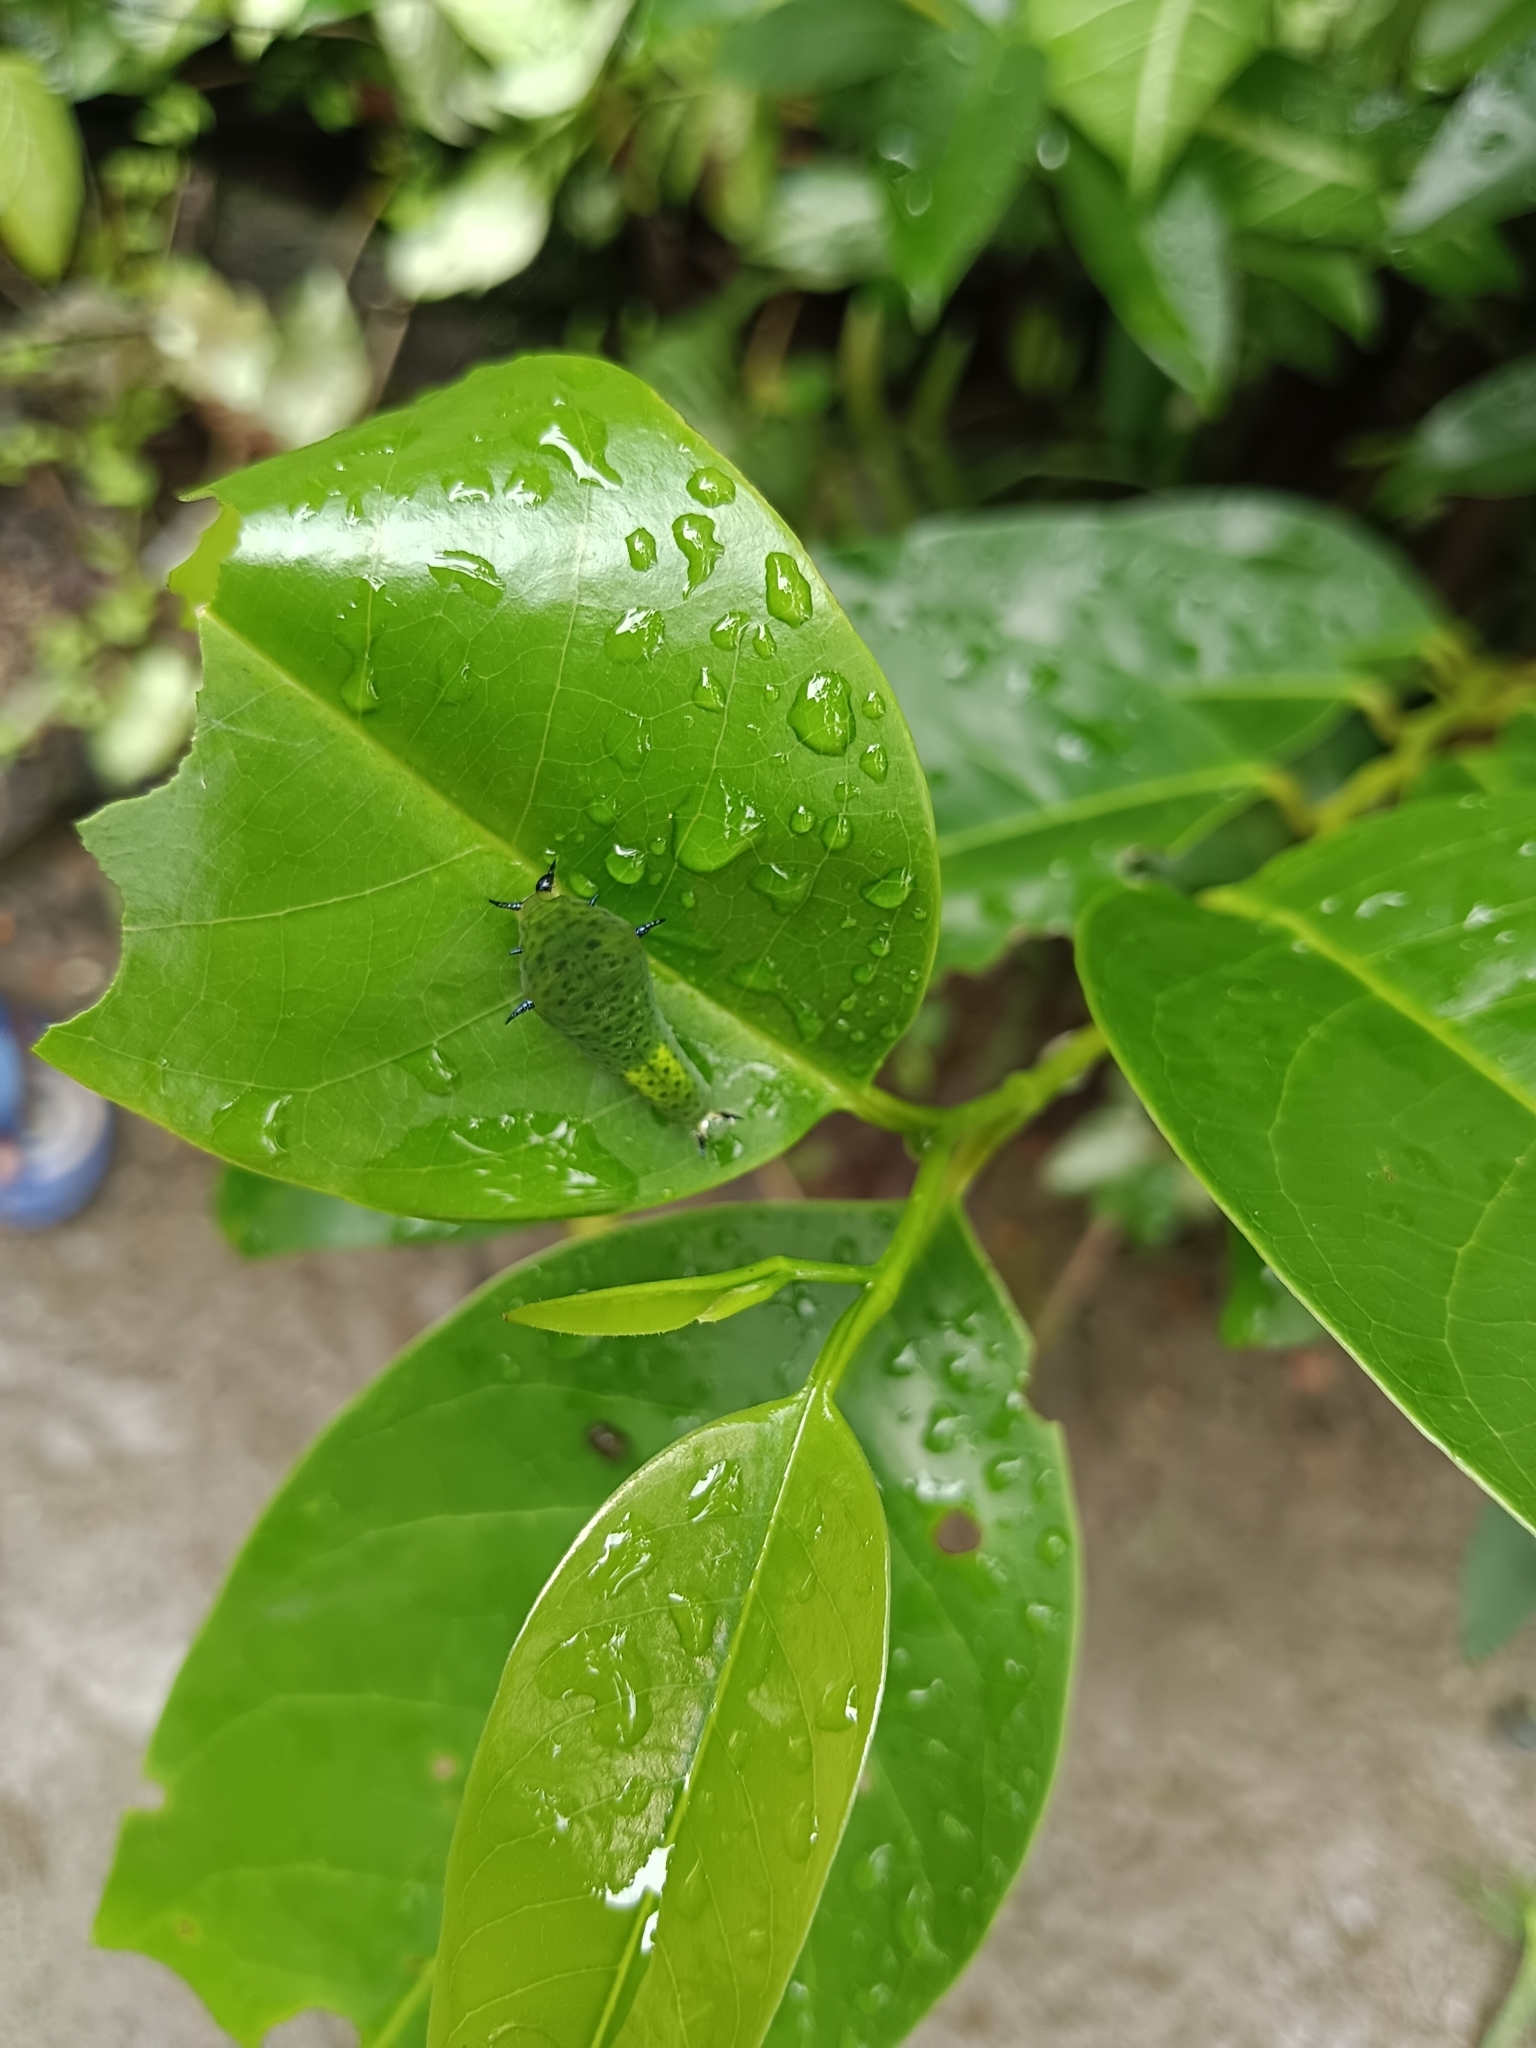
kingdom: Animalia
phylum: Arthropoda
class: Insecta
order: Lepidoptera
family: Papilionidae
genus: Graphium
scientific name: Graphium agamemnon
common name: Tailed jay
